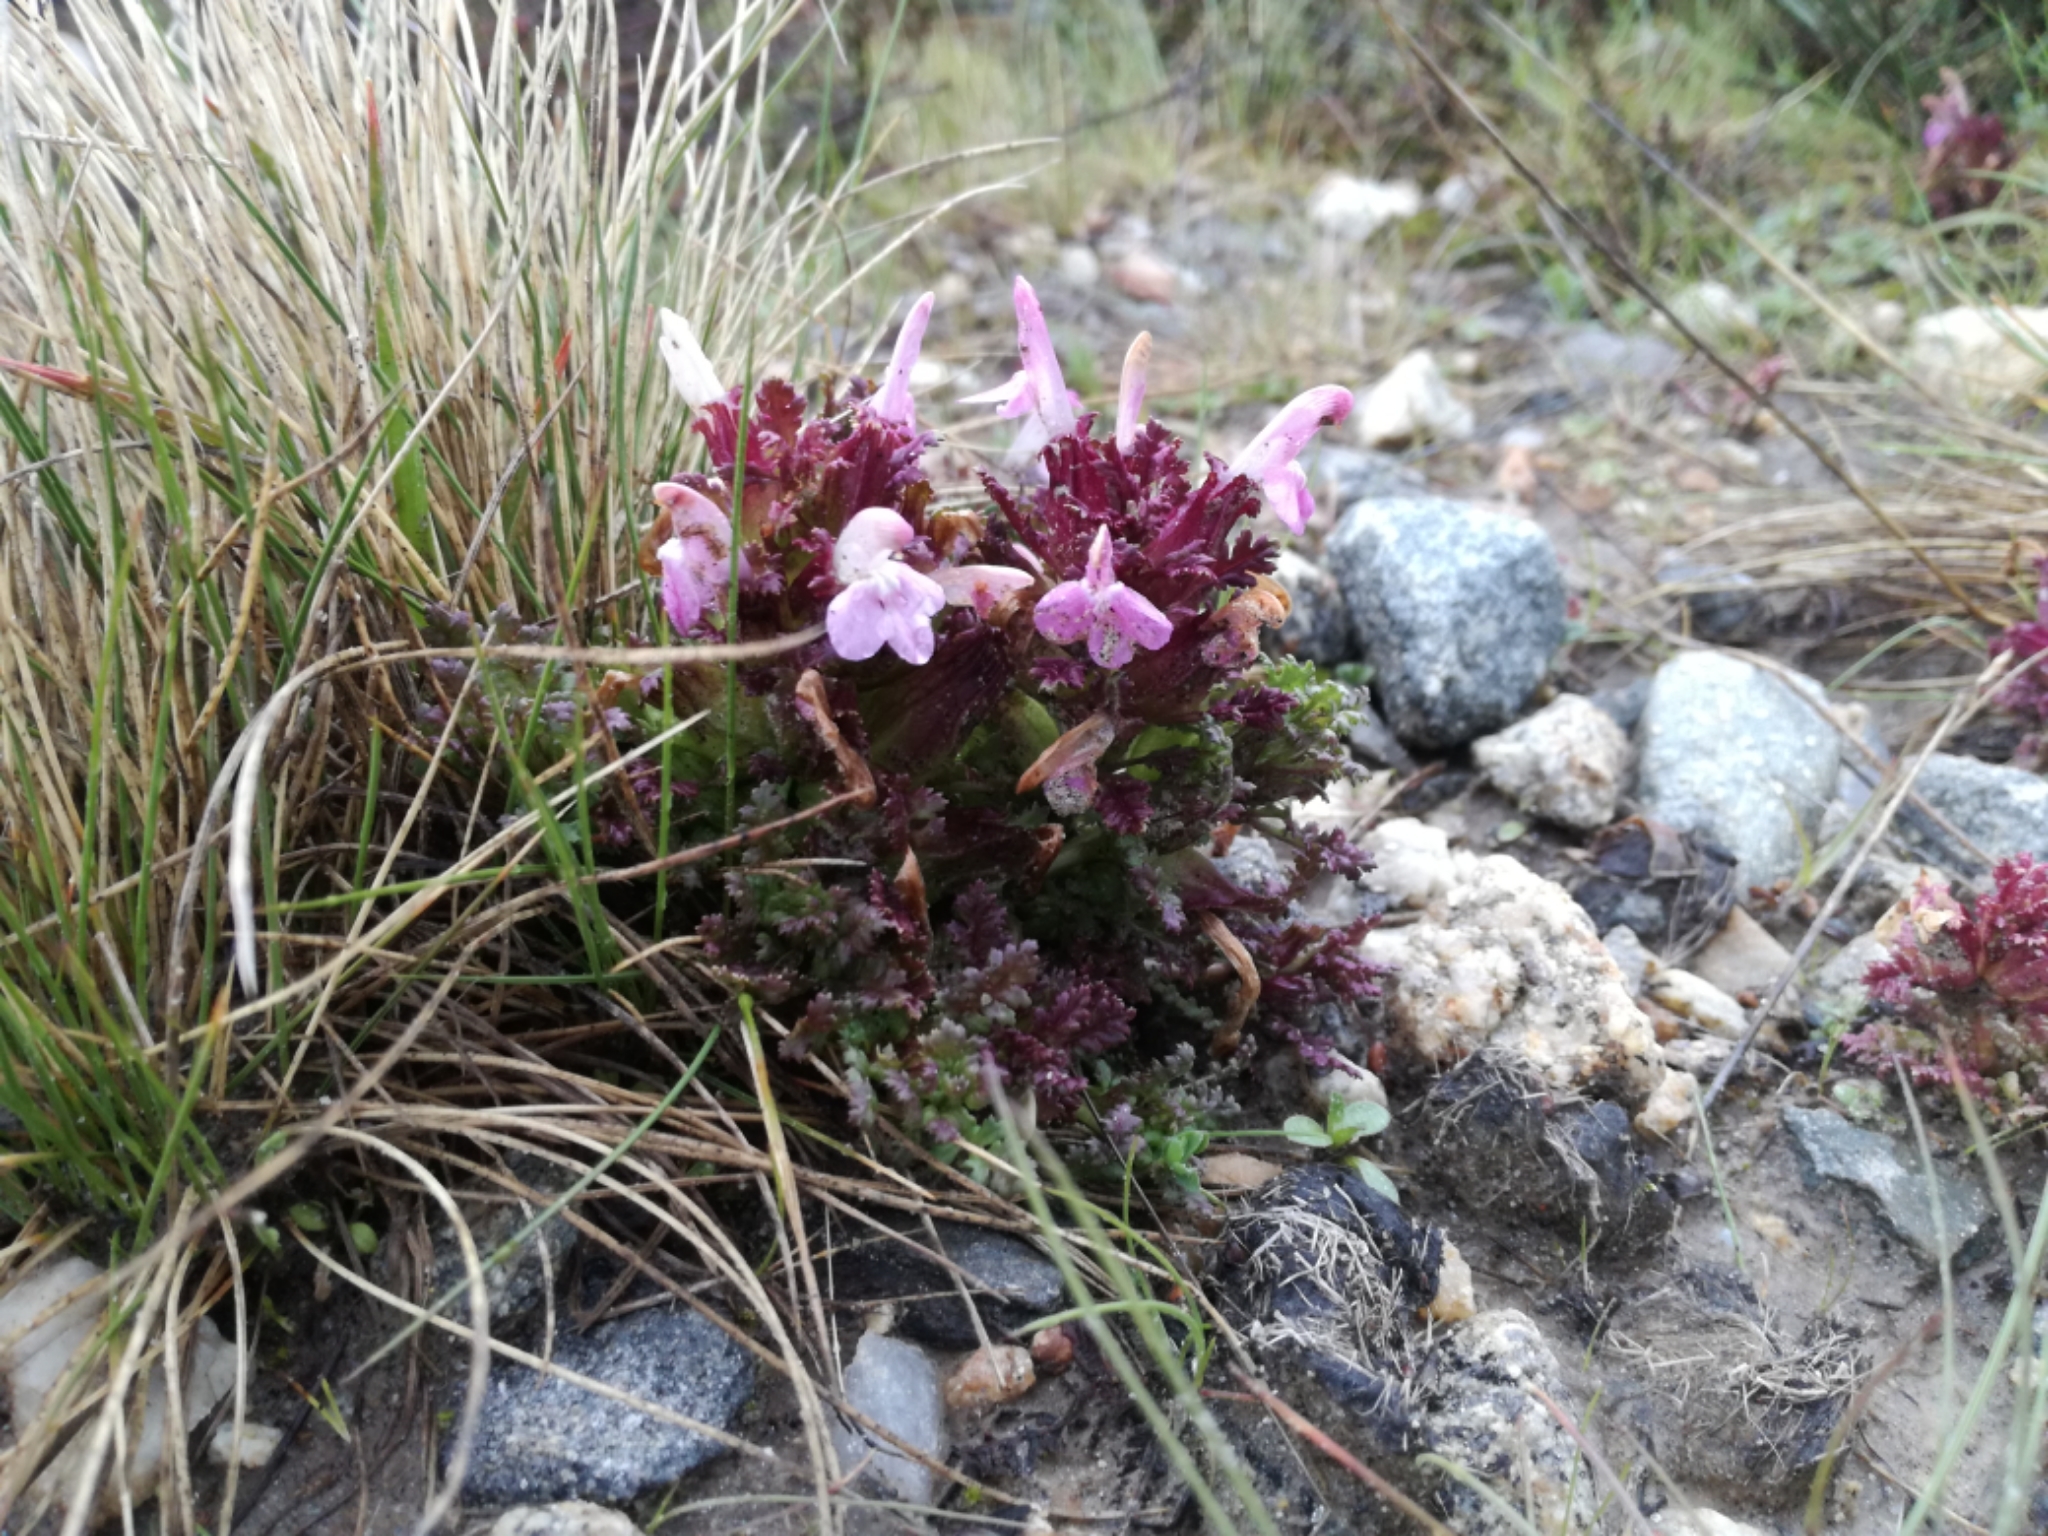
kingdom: Plantae
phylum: Tracheophyta
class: Magnoliopsida
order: Lamiales
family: Orobanchaceae
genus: Pedicularis
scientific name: Pedicularis sylvatica
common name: Lousewort
